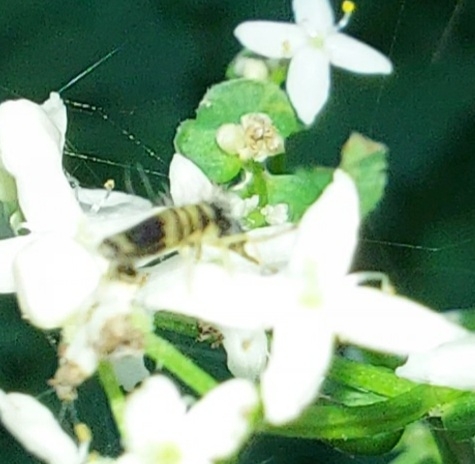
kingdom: Animalia
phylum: Arthropoda
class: Collembola
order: Entomobryomorpha
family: Entomobryidae
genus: Entomobrya
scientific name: Entomobrya superba
